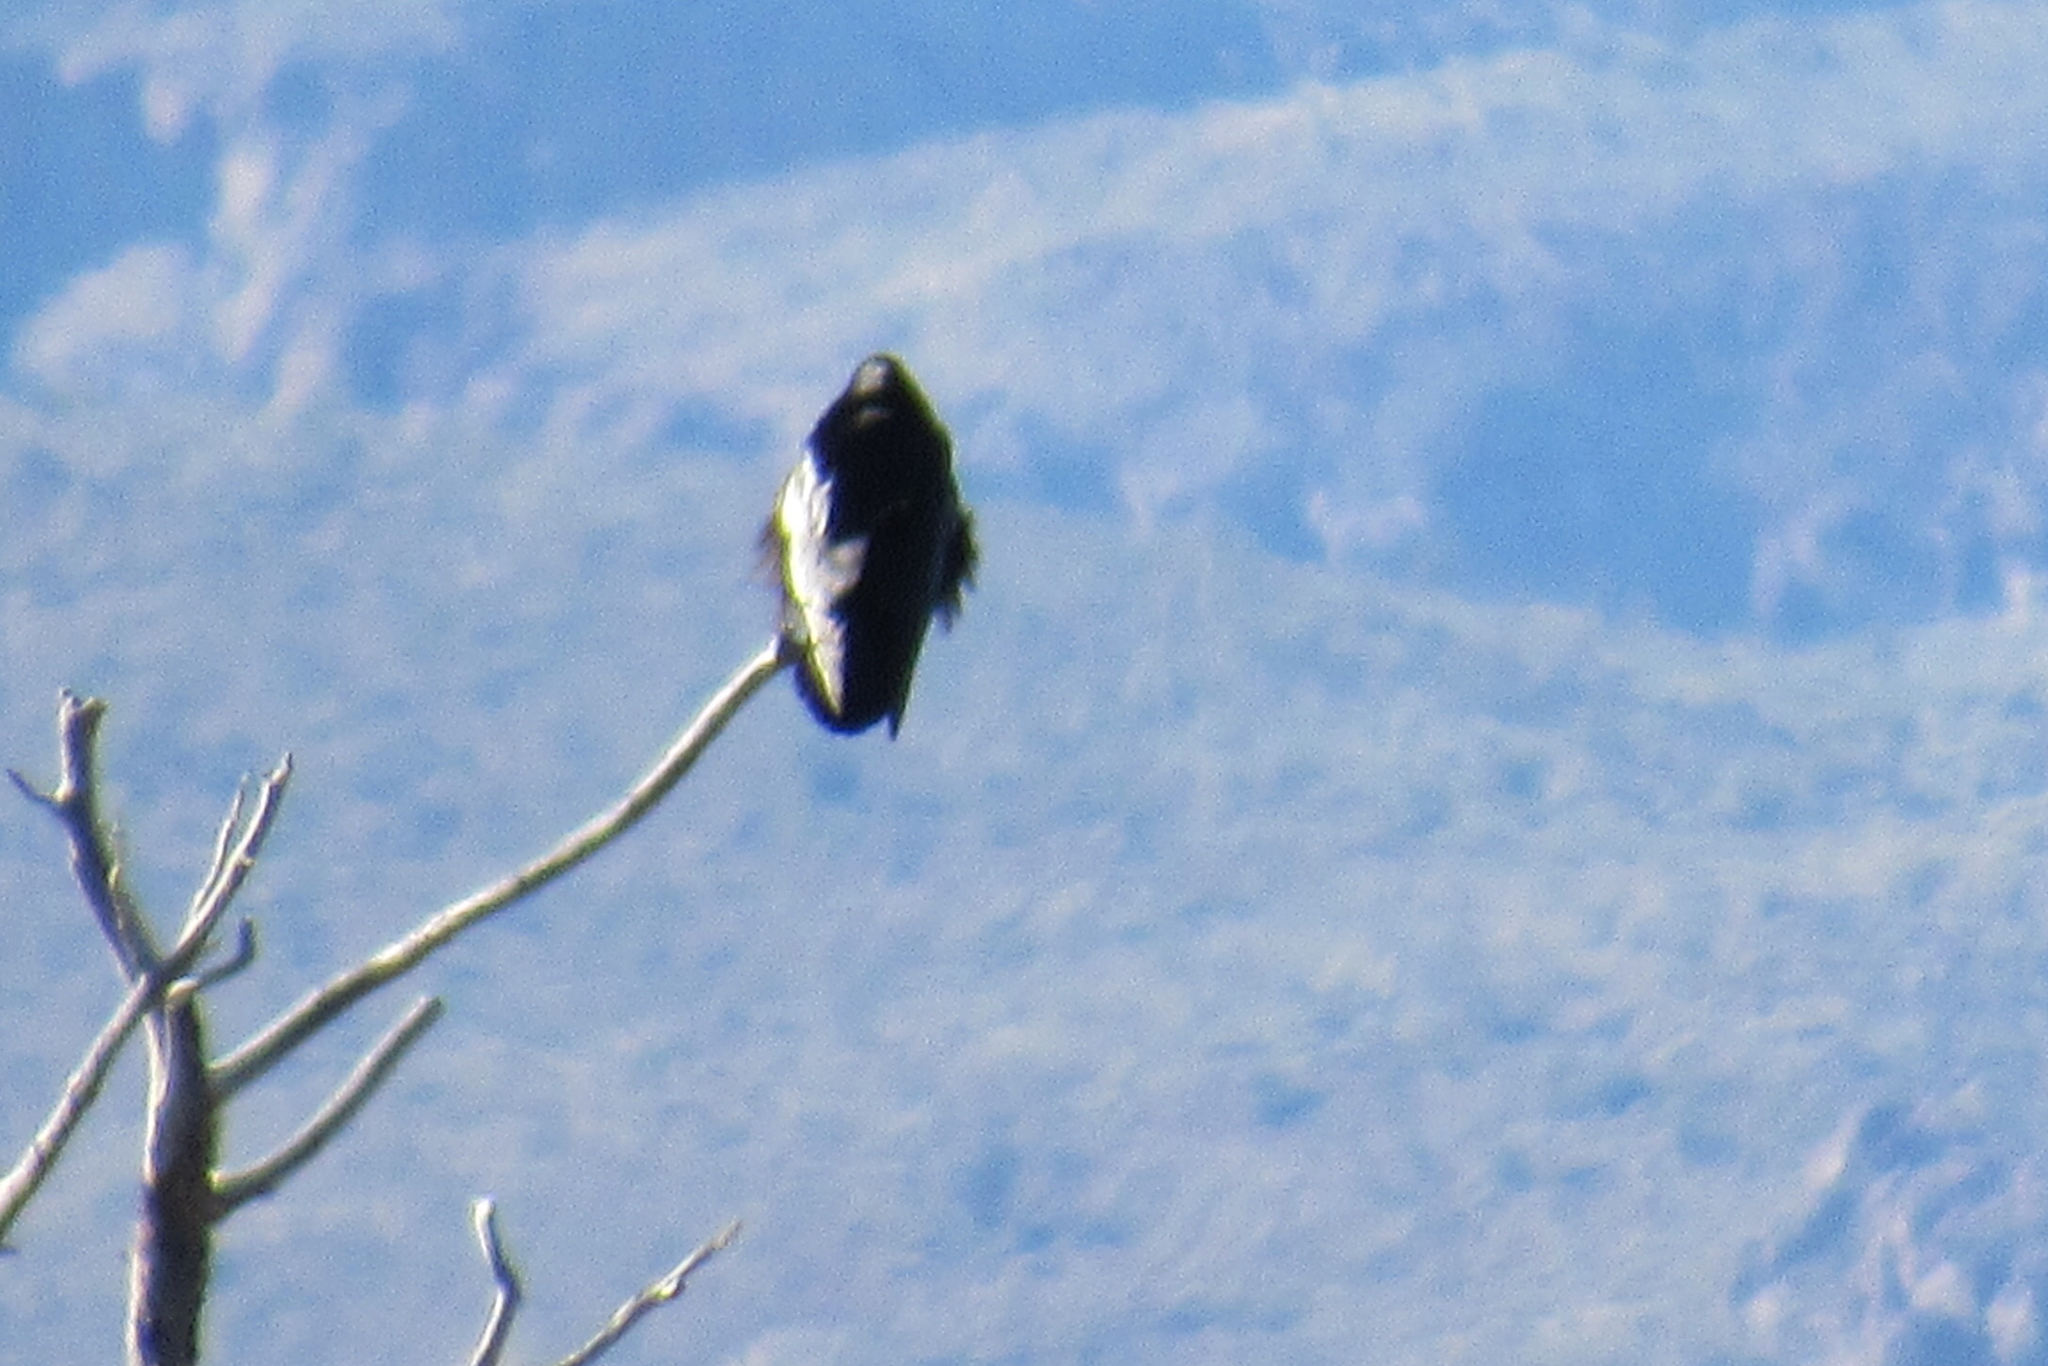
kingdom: Animalia
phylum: Chordata
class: Aves
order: Passeriformes
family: Corvidae
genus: Corvus
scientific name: Corvus corax
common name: Common raven
